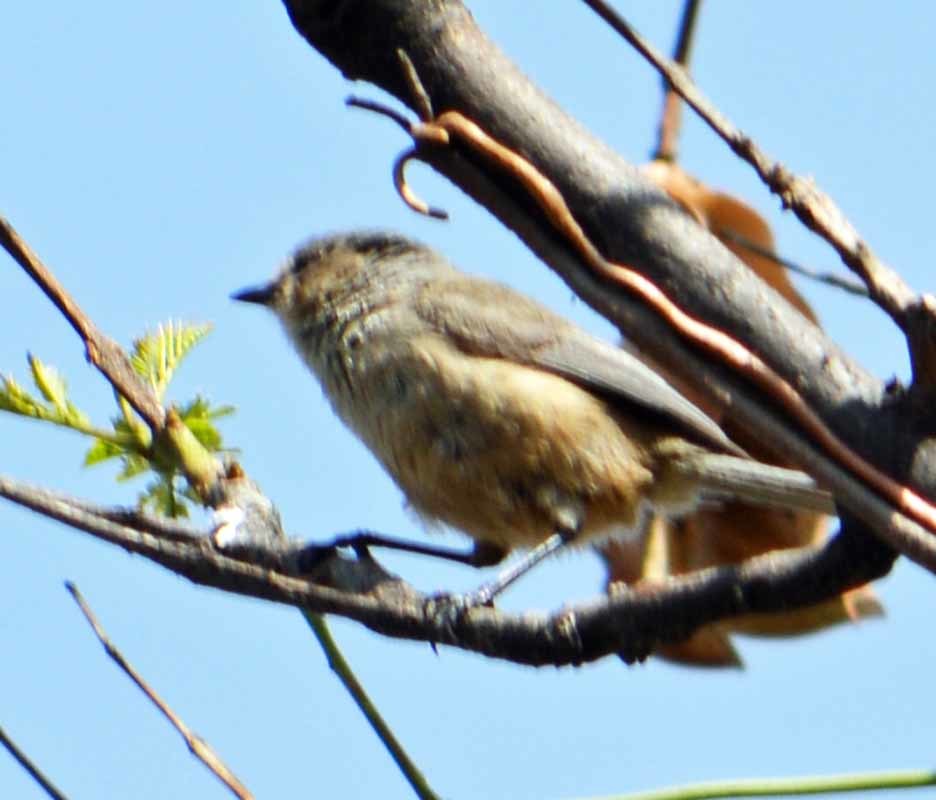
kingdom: Animalia
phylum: Chordata
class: Aves
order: Passeriformes
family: Aegithalidae
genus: Psaltriparus
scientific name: Psaltriparus minimus
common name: American bushtit
